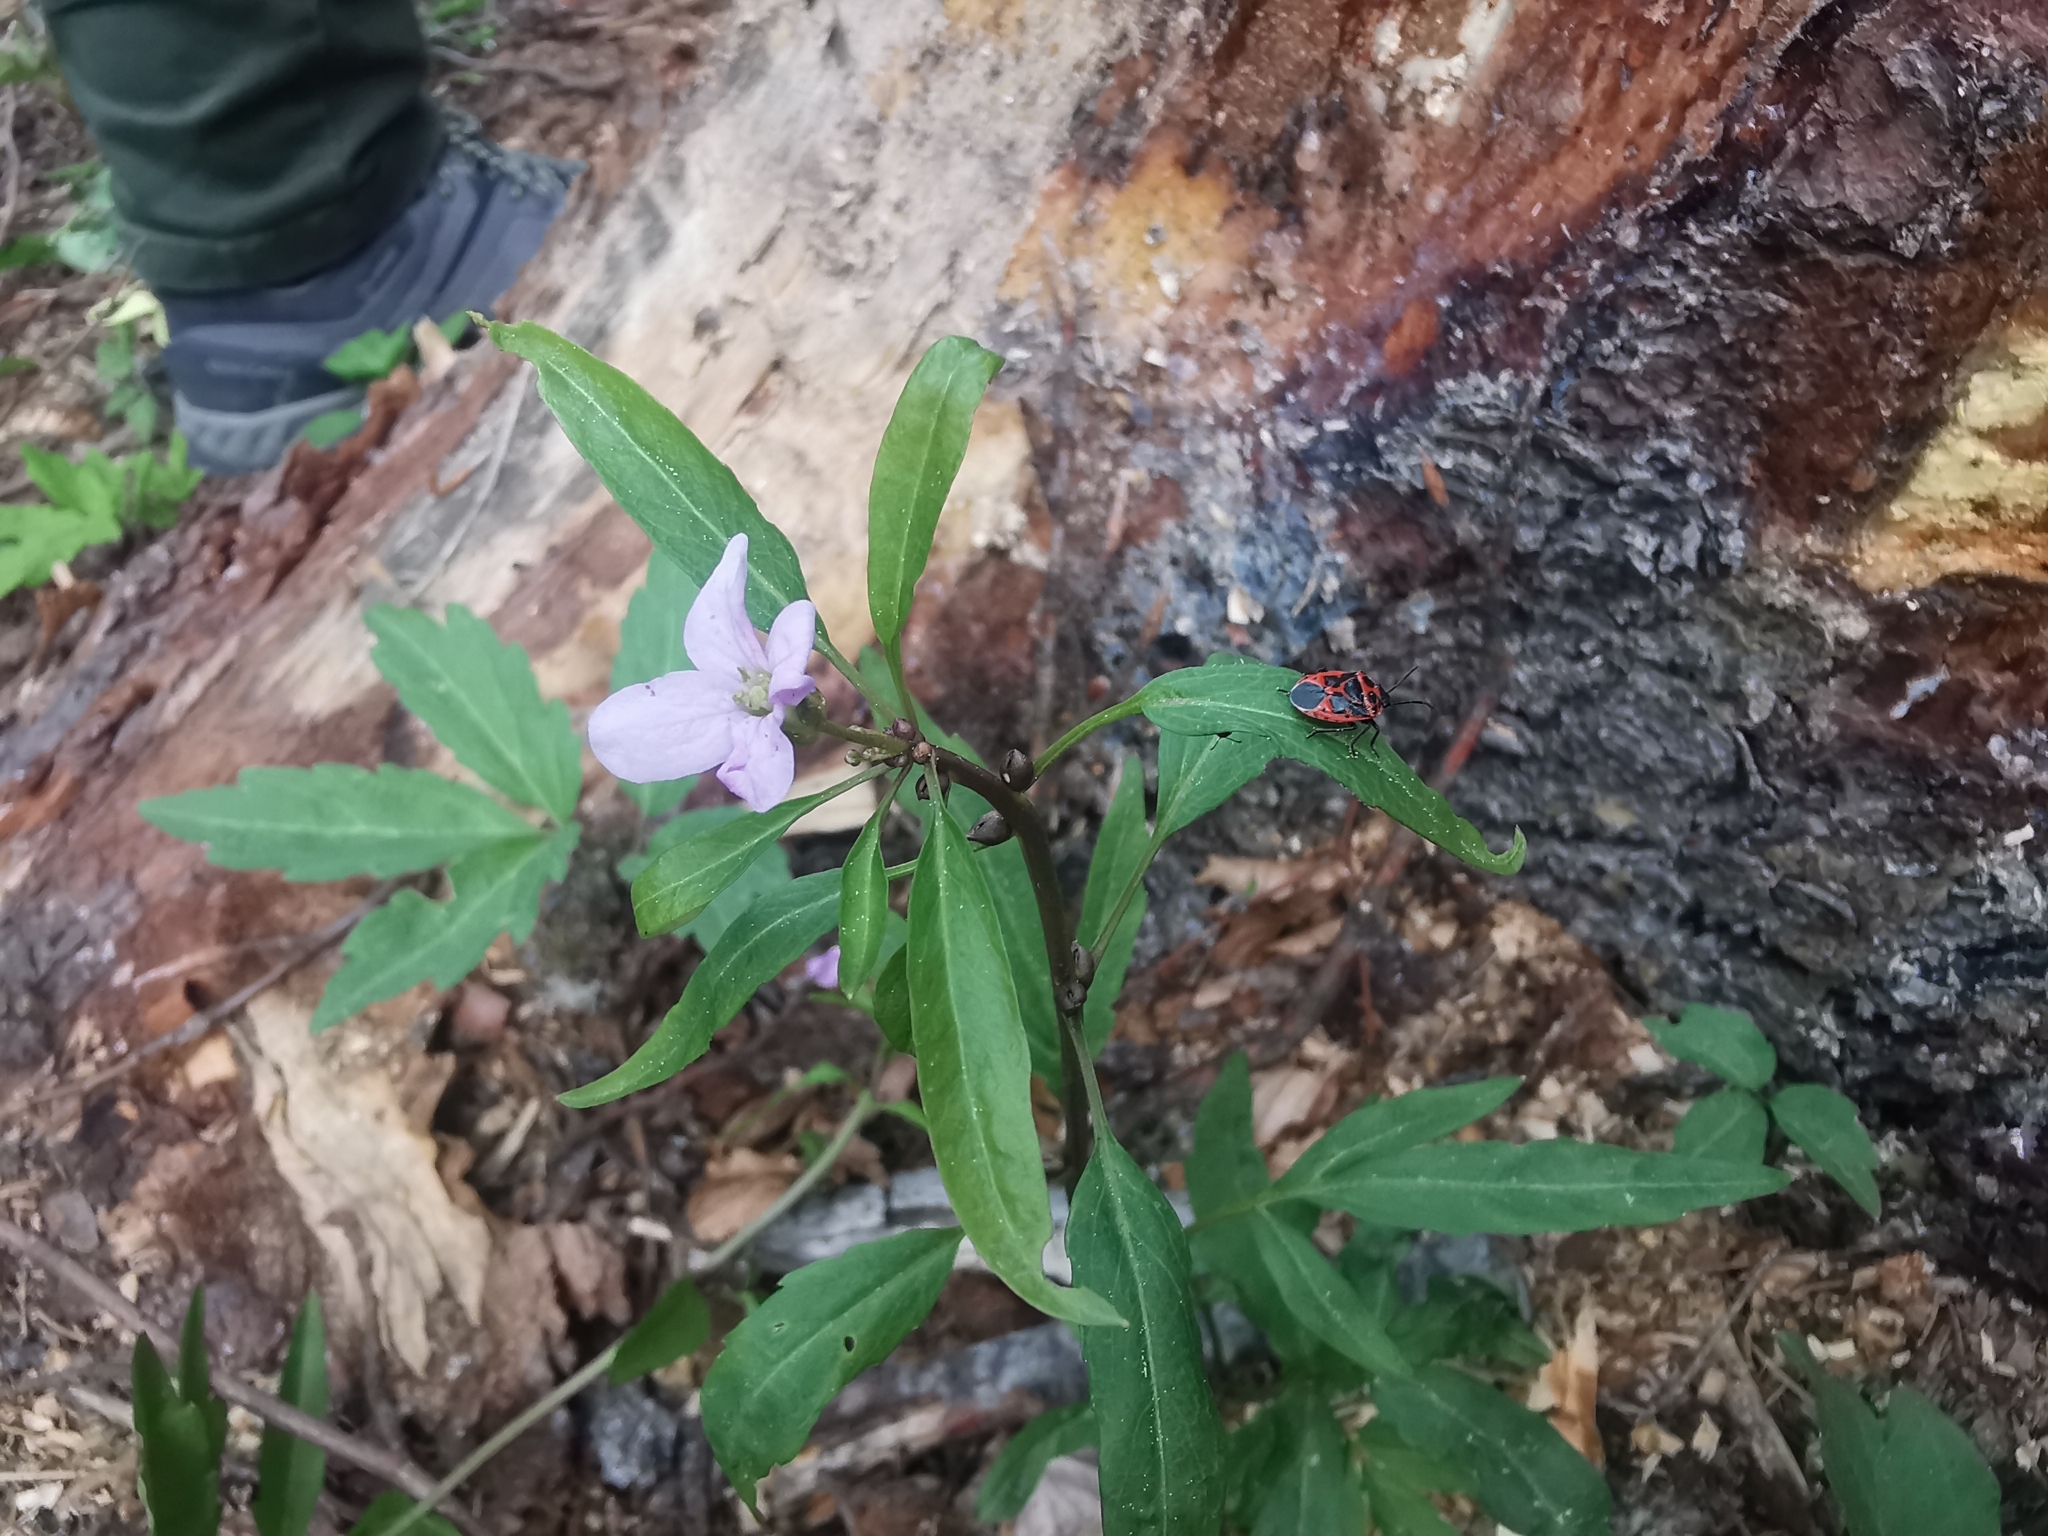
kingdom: Plantae
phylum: Tracheophyta
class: Magnoliopsida
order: Brassicales
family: Brassicaceae
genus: Cardamine
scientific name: Cardamine bulbifera
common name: Coralroot bittercress
